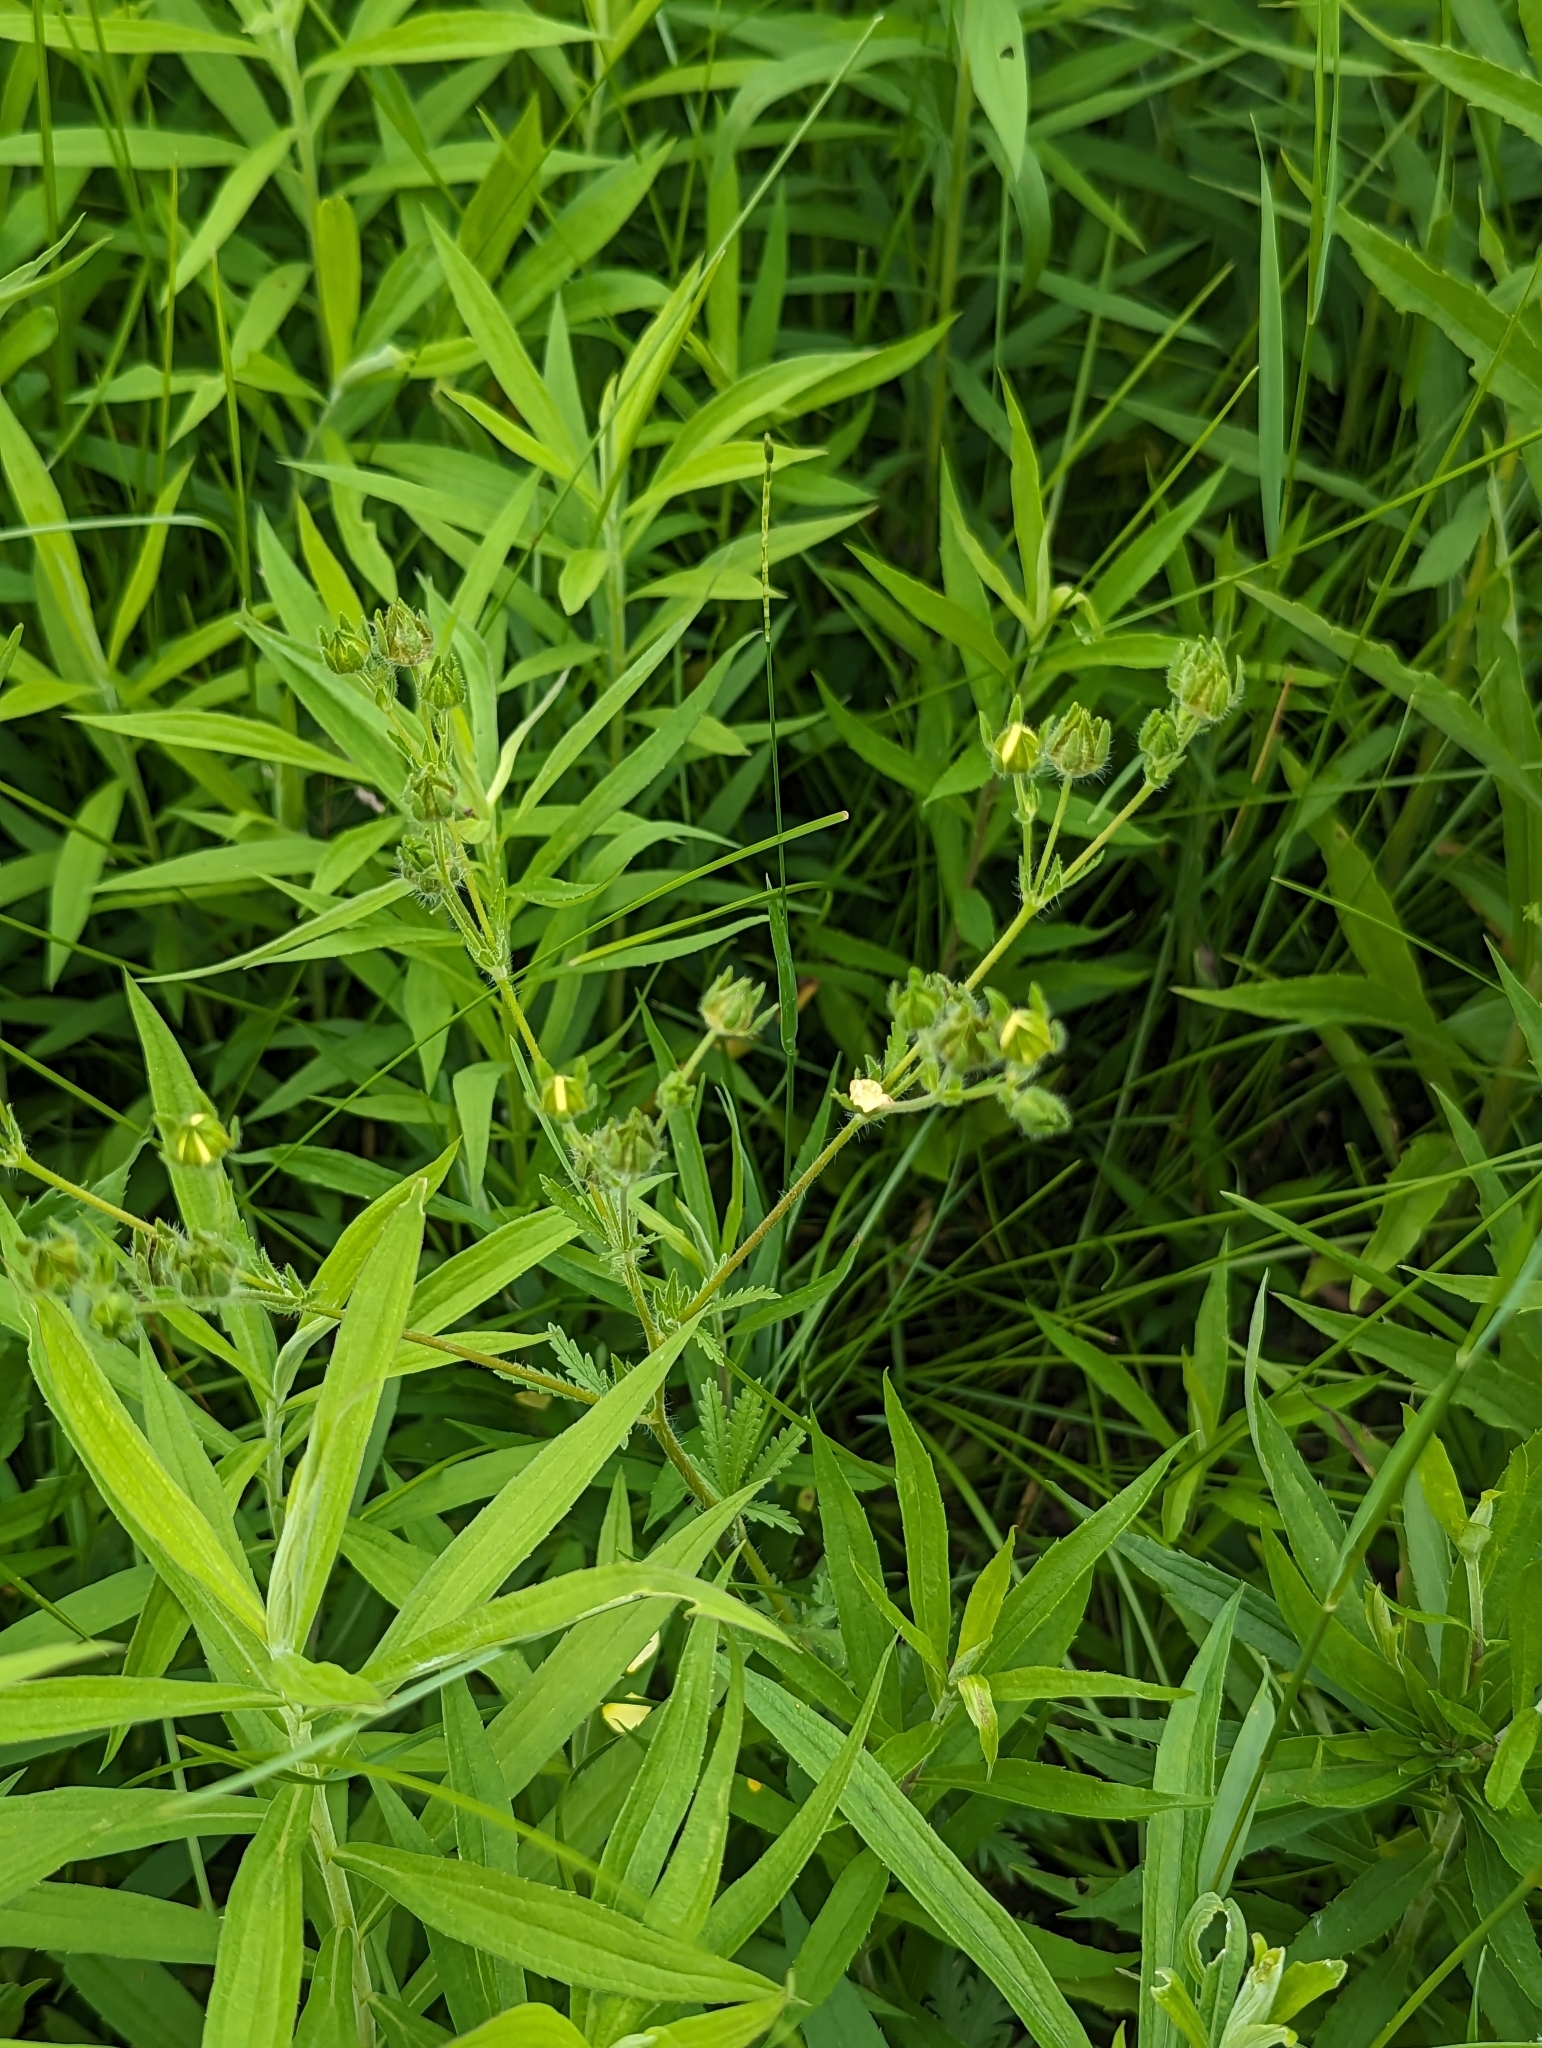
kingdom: Plantae
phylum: Tracheophyta
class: Magnoliopsida
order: Rosales
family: Rosaceae
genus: Potentilla
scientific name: Potentilla recta
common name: Sulphur cinquefoil
